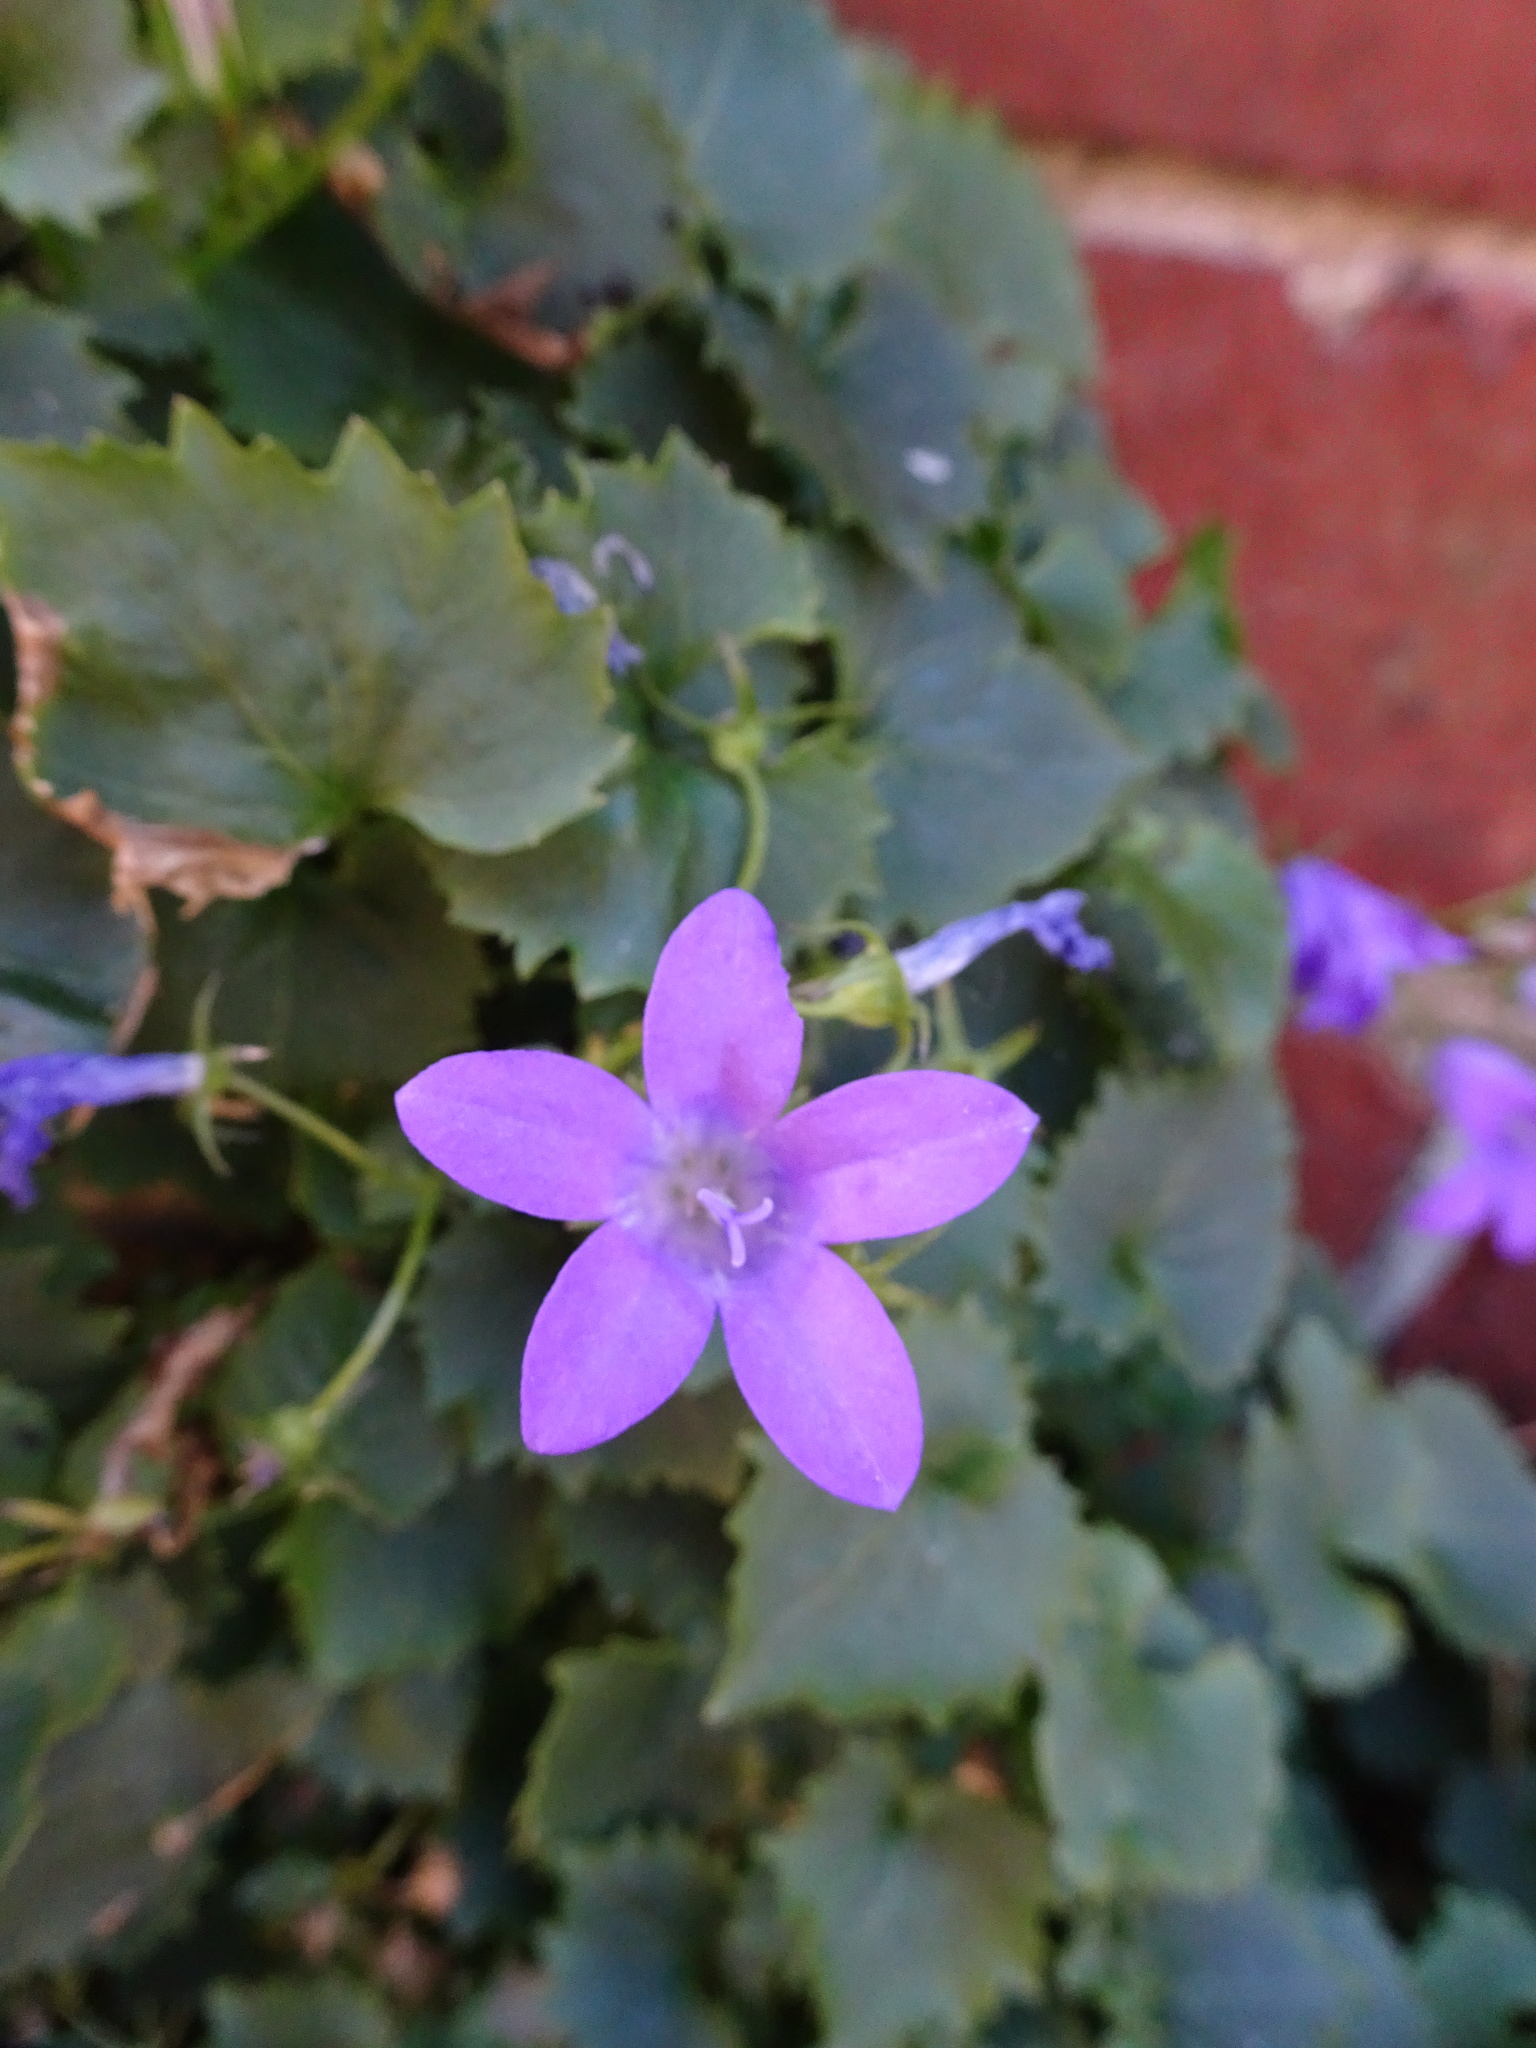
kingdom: Plantae
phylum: Tracheophyta
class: Magnoliopsida
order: Asterales
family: Campanulaceae
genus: Campanula
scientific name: Campanula portenschlagiana
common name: Adria bellflower
